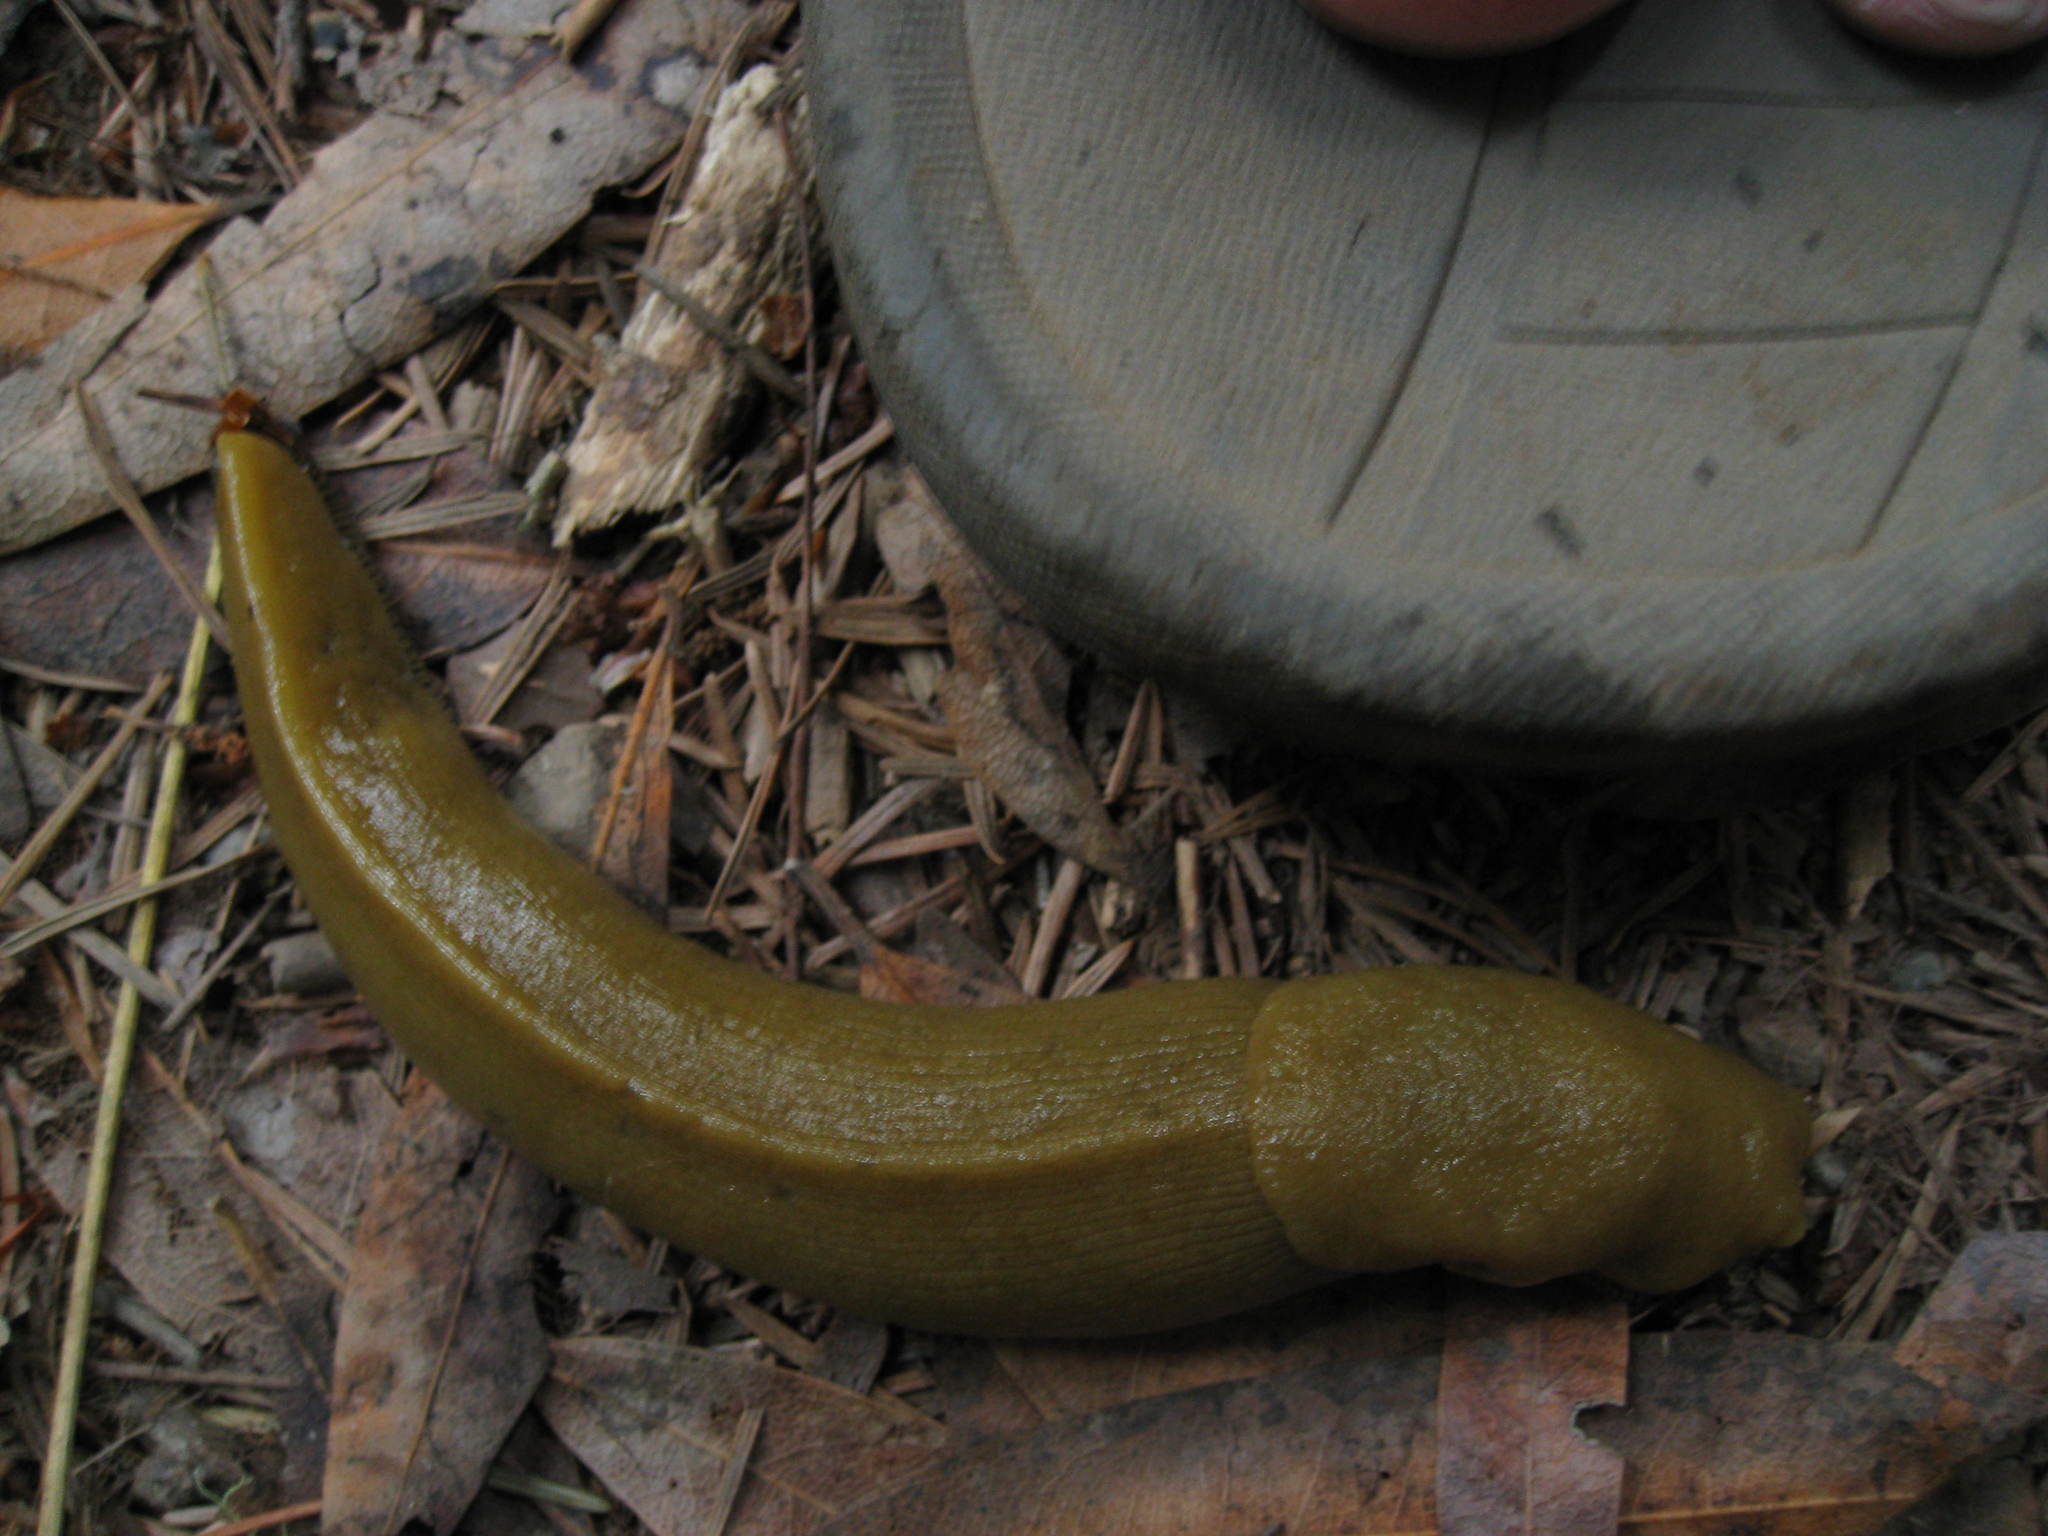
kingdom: Animalia
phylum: Mollusca
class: Gastropoda
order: Stylommatophora
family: Ariolimacidae
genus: Ariolimax
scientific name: Ariolimax buttoni
